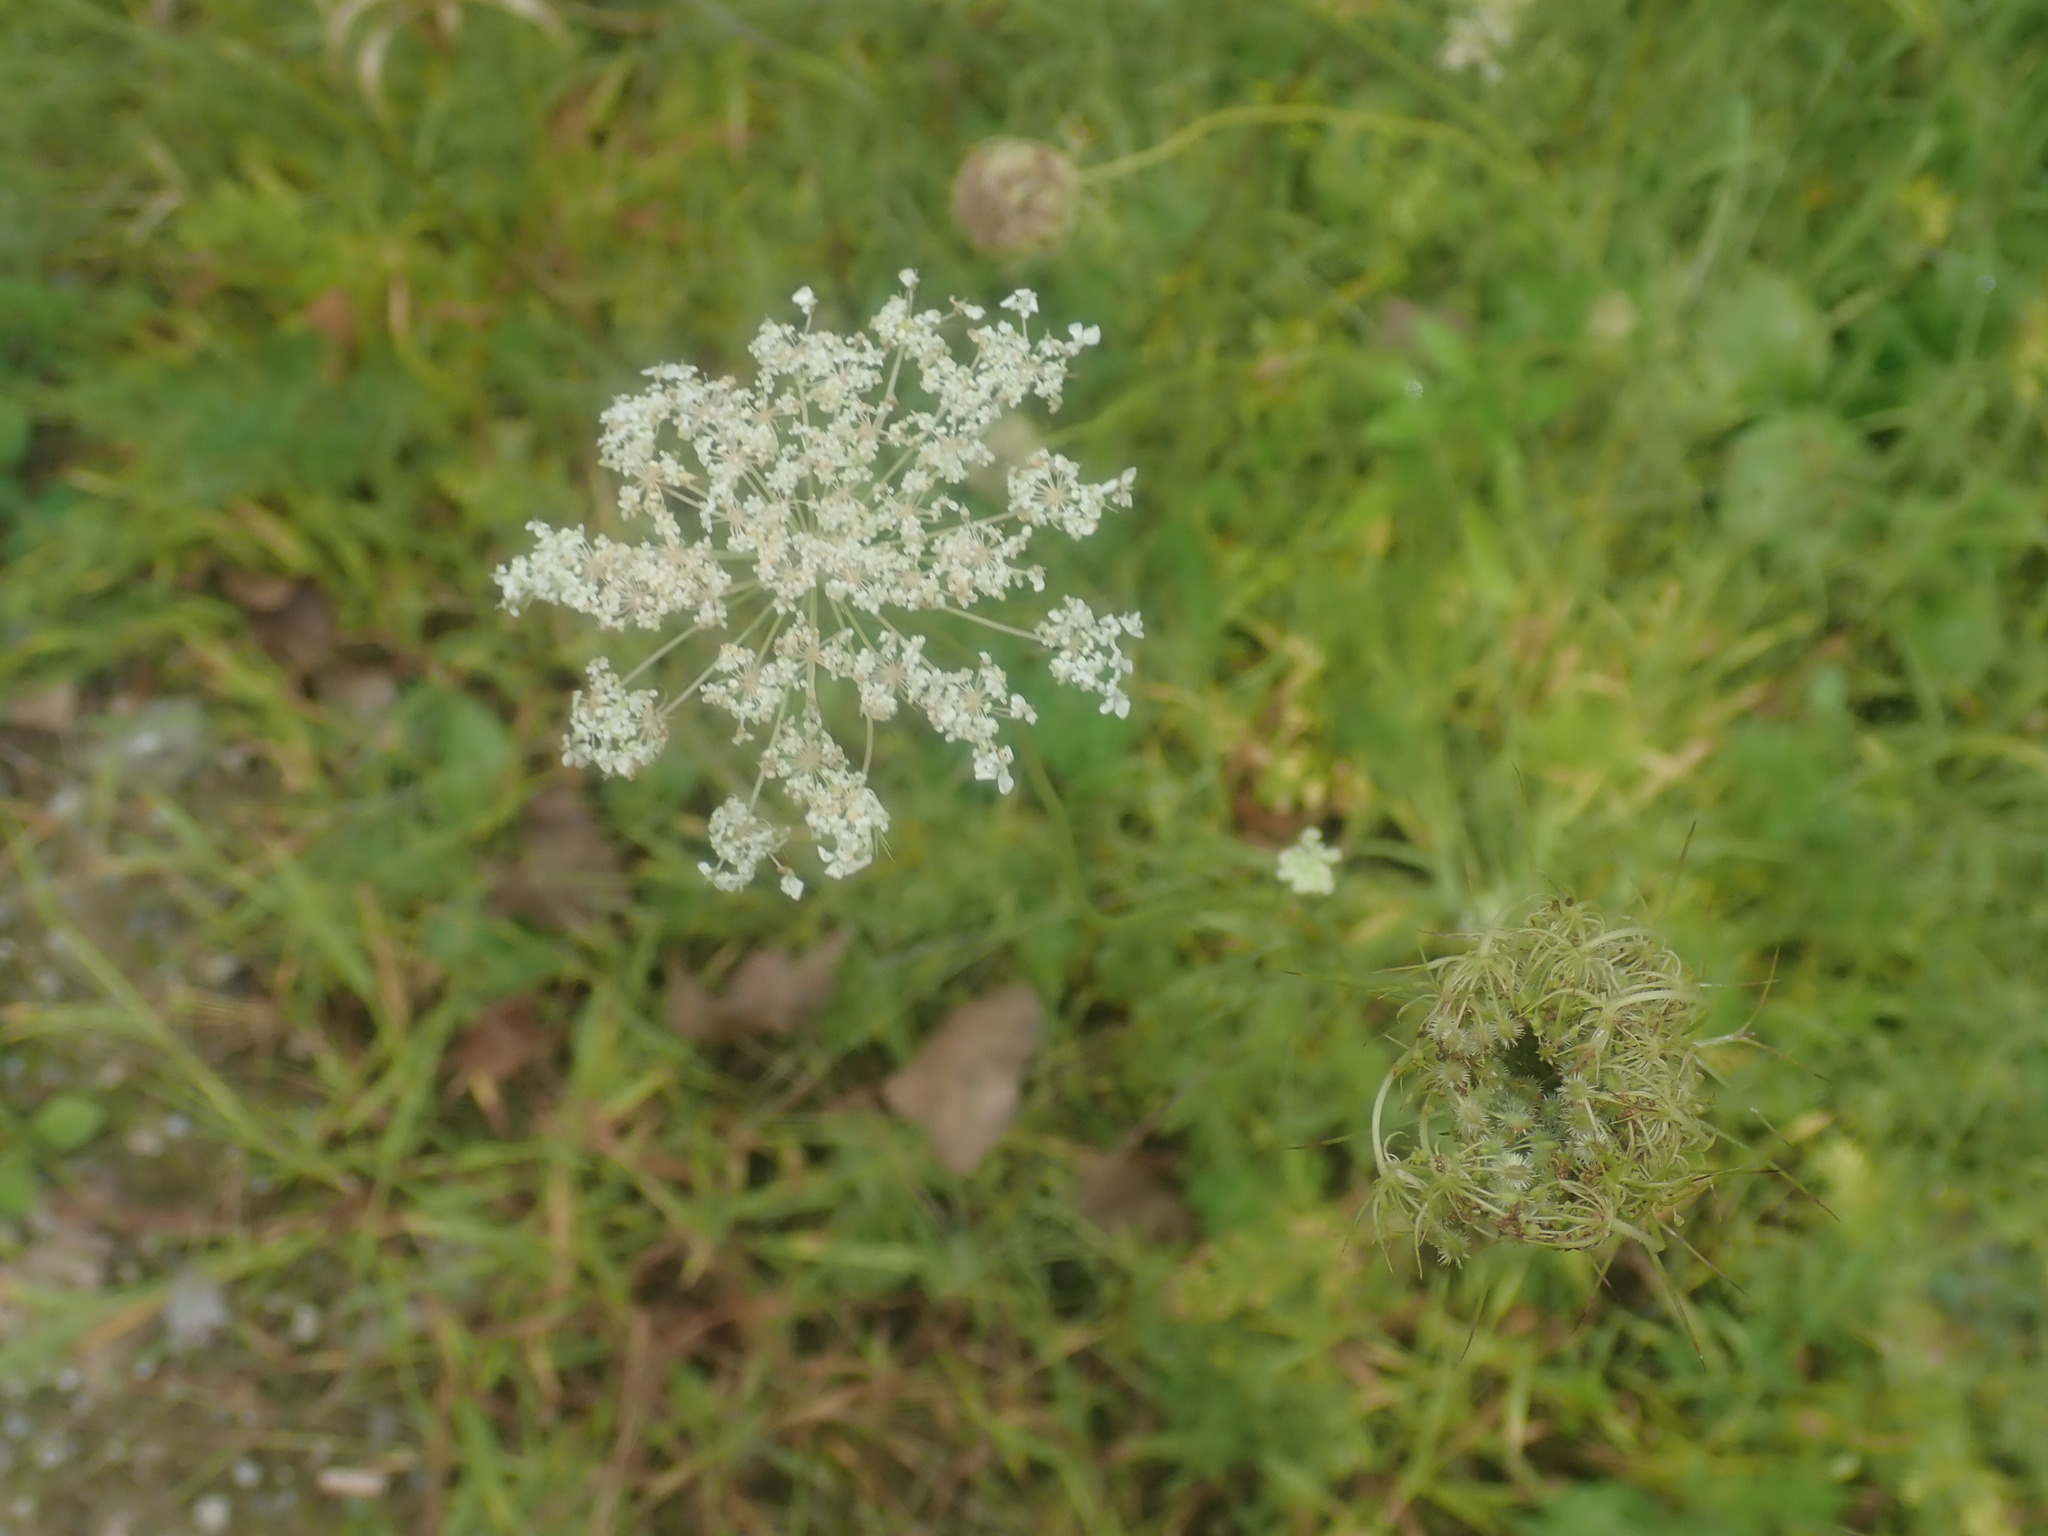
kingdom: Plantae
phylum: Tracheophyta
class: Magnoliopsida
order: Apiales
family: Apiaceae
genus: Daucus
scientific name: Daucus carota
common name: Wild carrot
